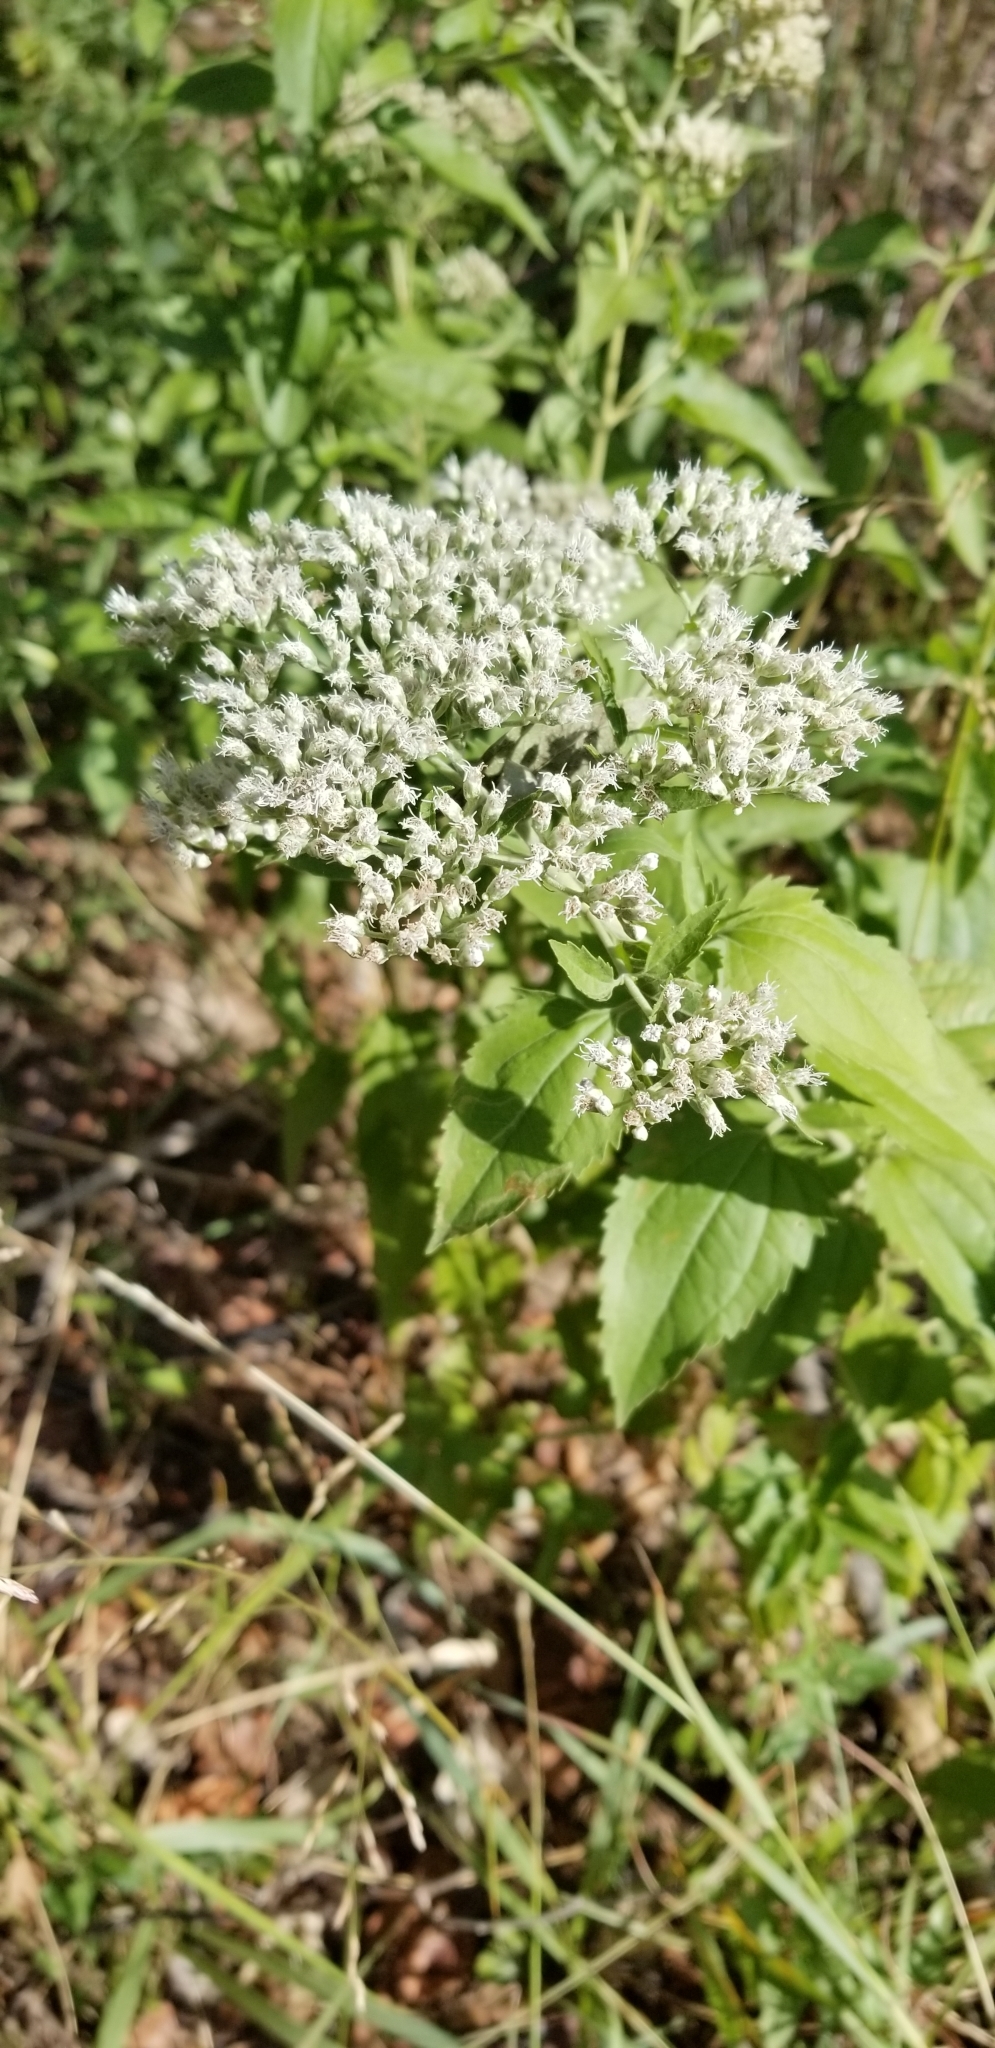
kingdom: Plantae
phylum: Tracheophyta
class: Magnoliopsida
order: Asterales
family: Asteraceae
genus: Eupatorium
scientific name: Eupatorium serotinum
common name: Late boneset
